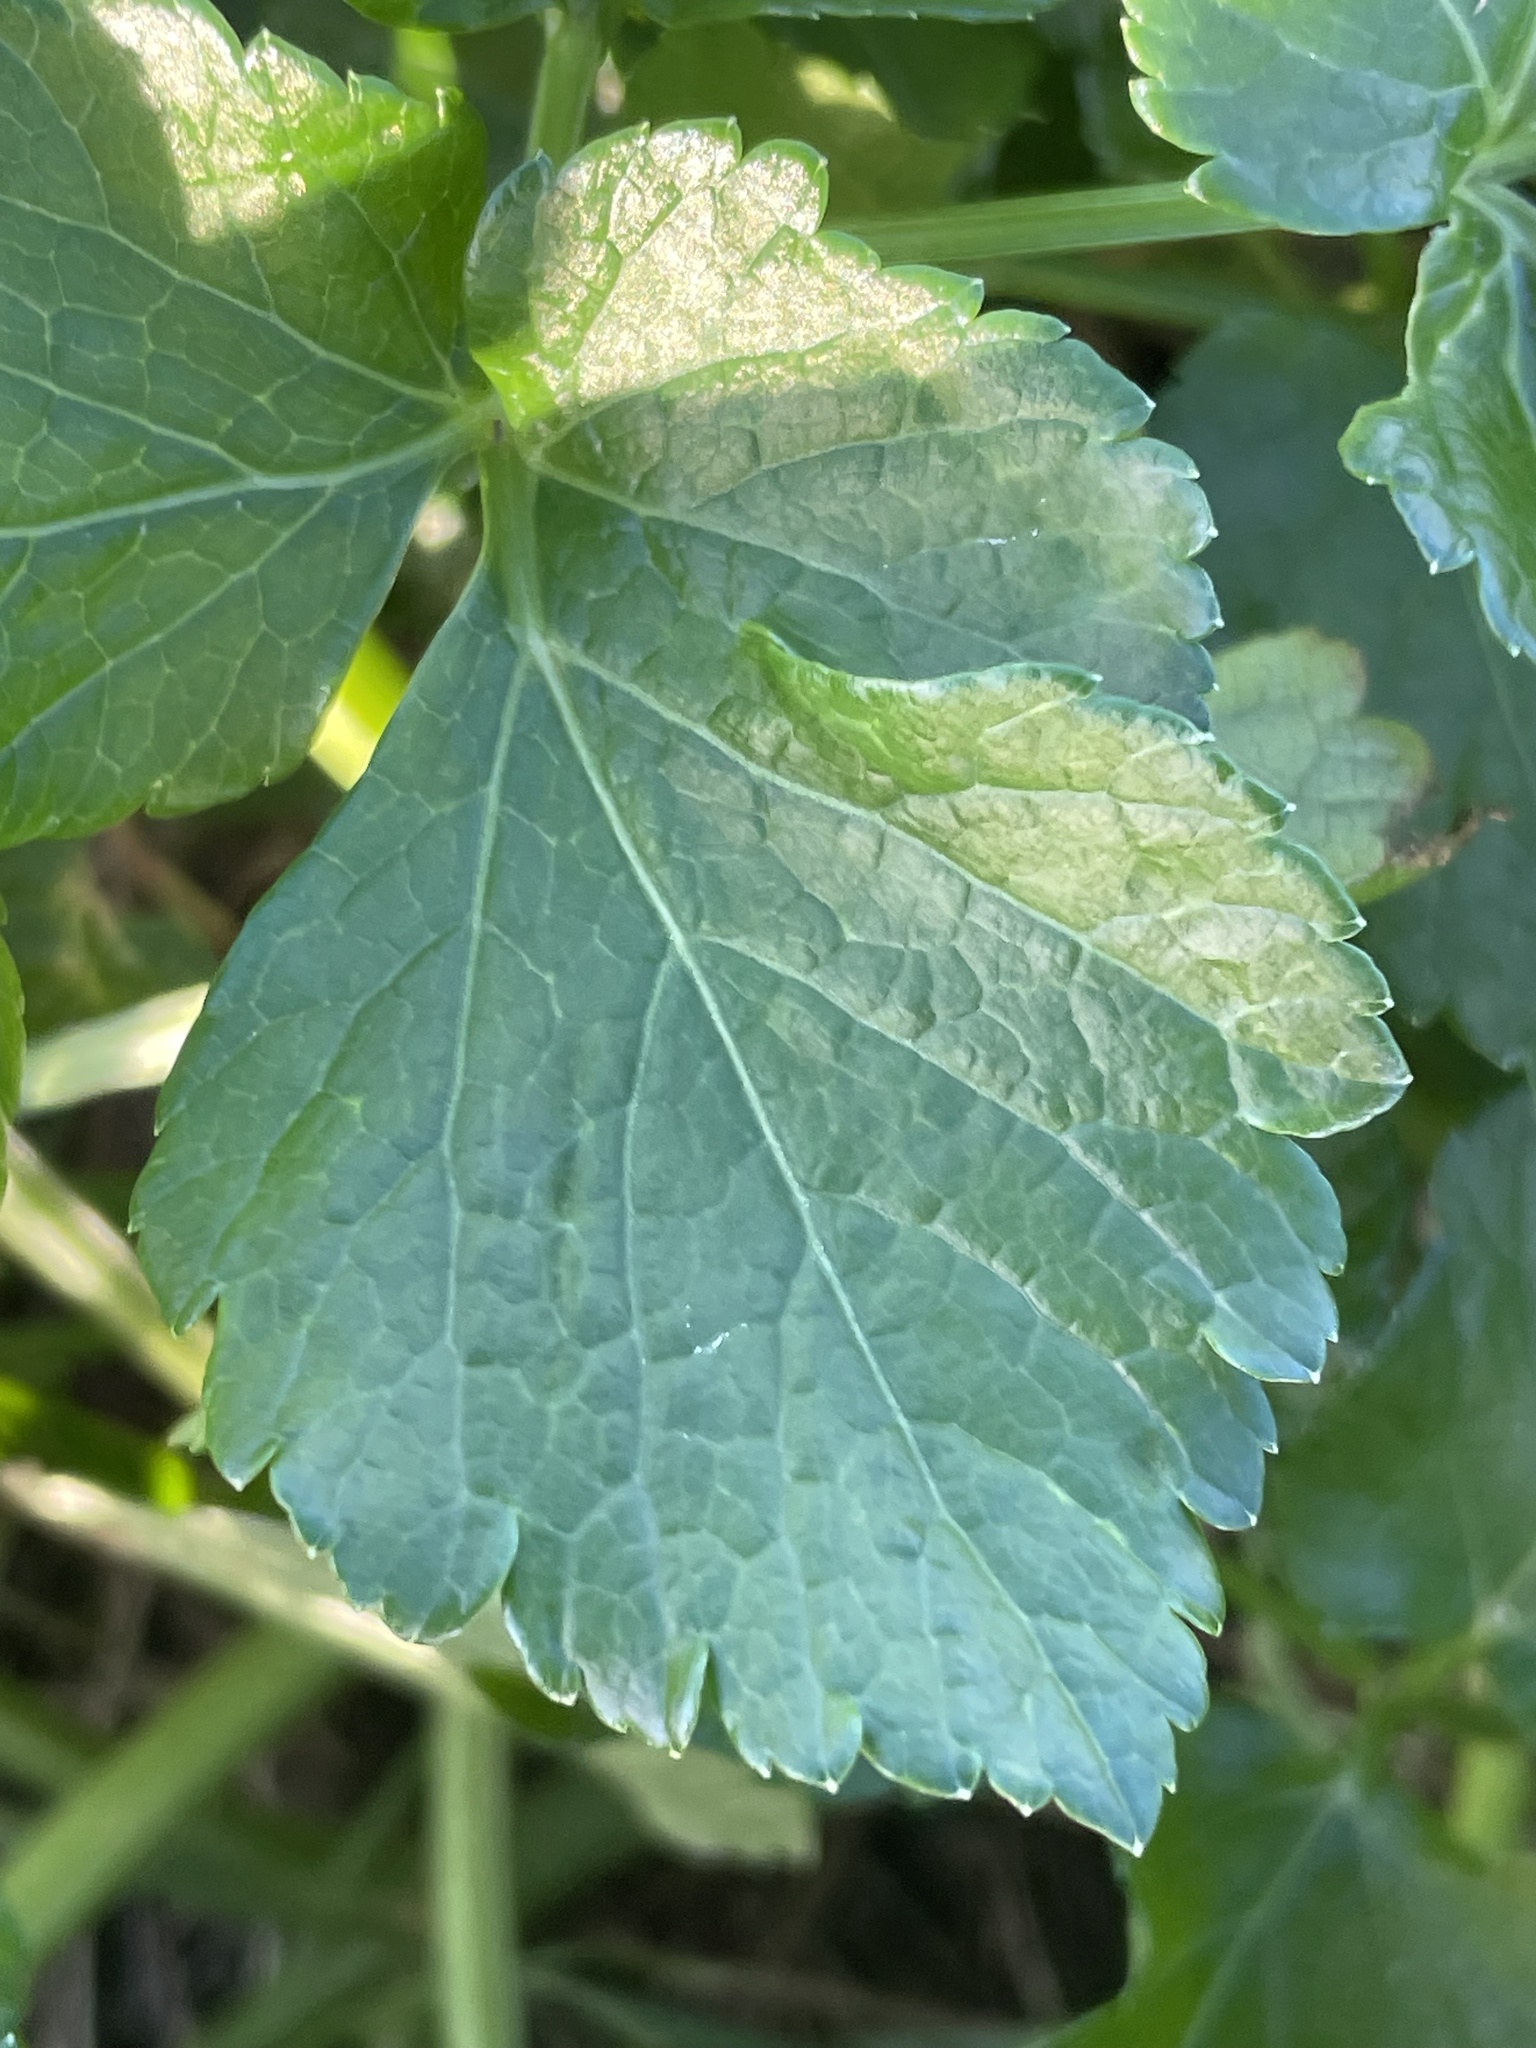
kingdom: Plantae
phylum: Tracheophyta
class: Magnoliopsida
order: Apiales
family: Apiaceae
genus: Smyrnium
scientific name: Smyrnium olusatrum
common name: Alexanders
